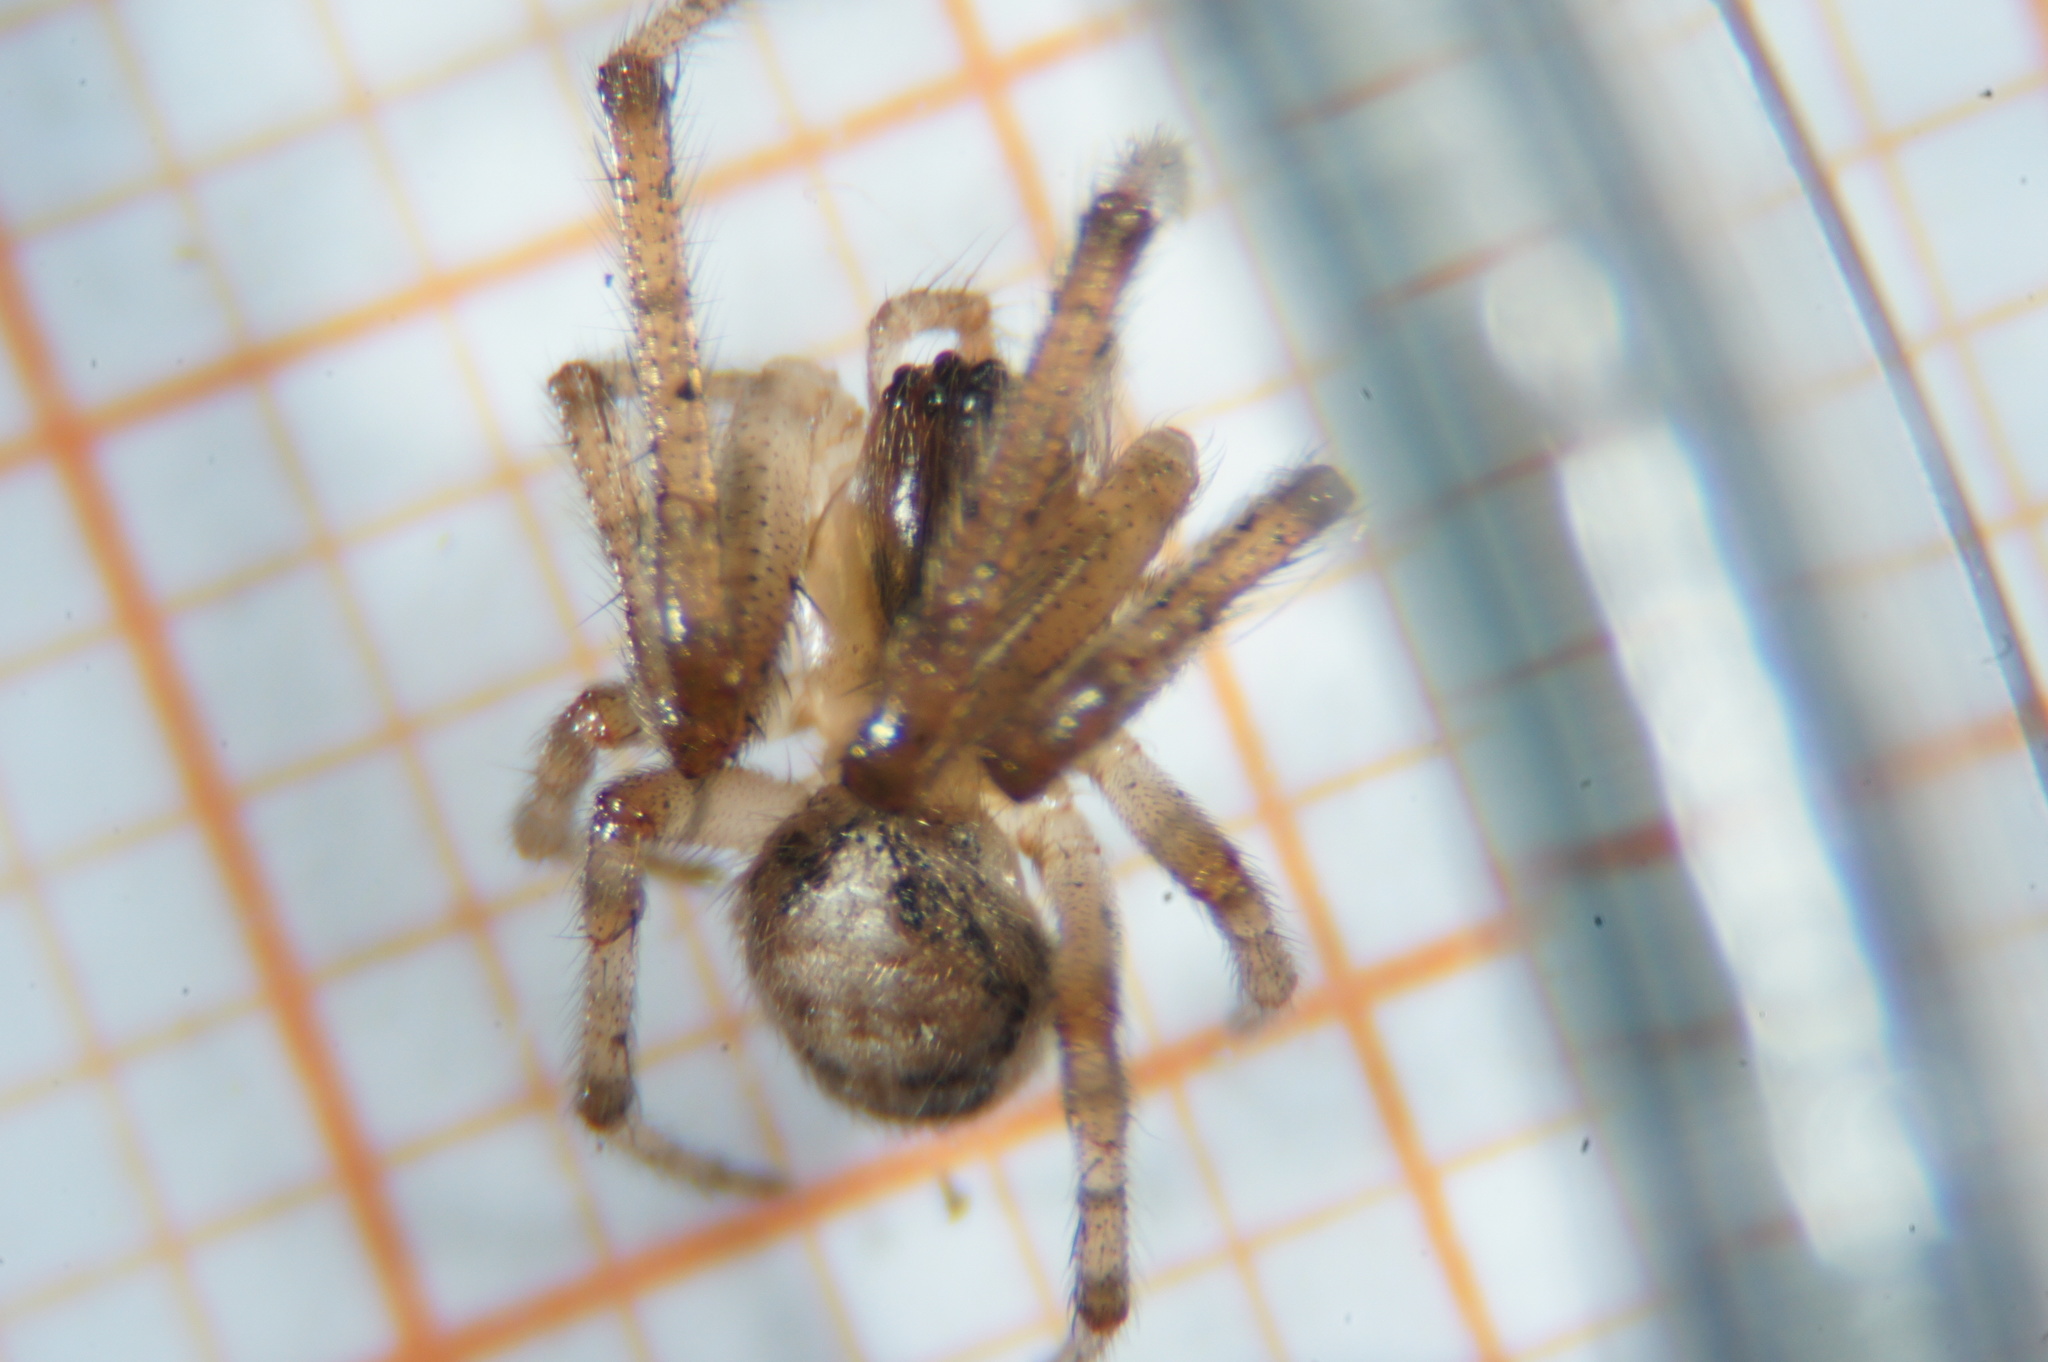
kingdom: Animalia
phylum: Arthropoda
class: Arachnida
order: Araneae
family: Araneidae
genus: Zygiella
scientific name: Zygiella x-notata
